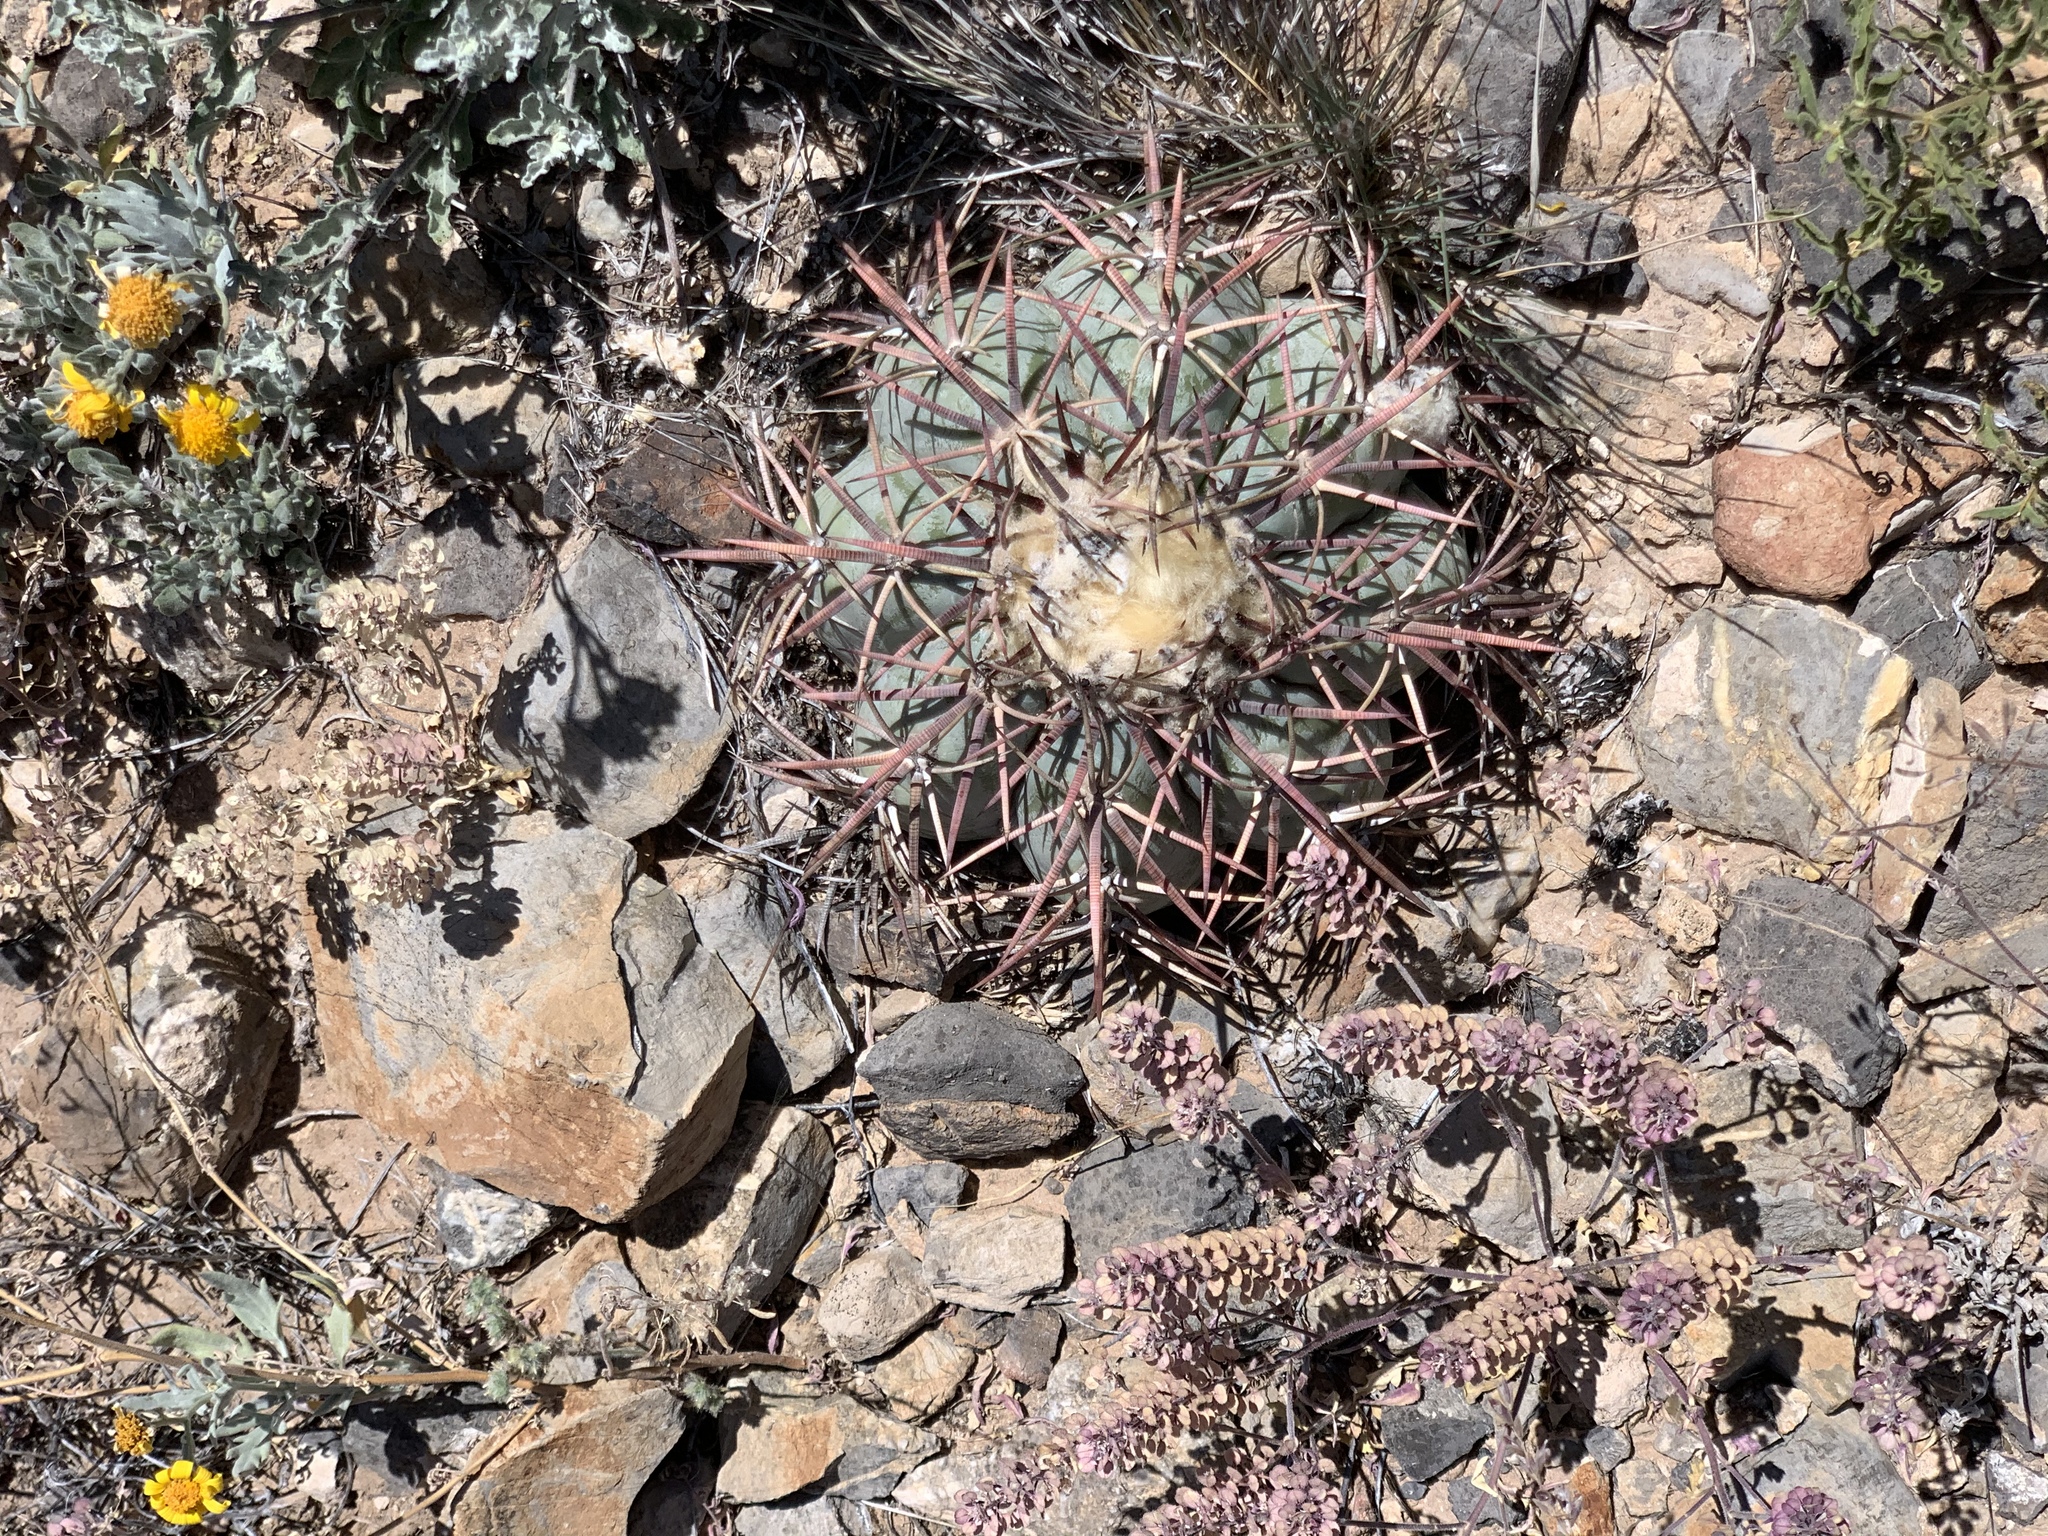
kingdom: Plantae
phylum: Tracheophyta
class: Magnoliopsida
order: Caryophyllales
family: Cactaceae
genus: Echinocactus
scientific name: Echinocactus horizonthalonius
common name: Devilshead
